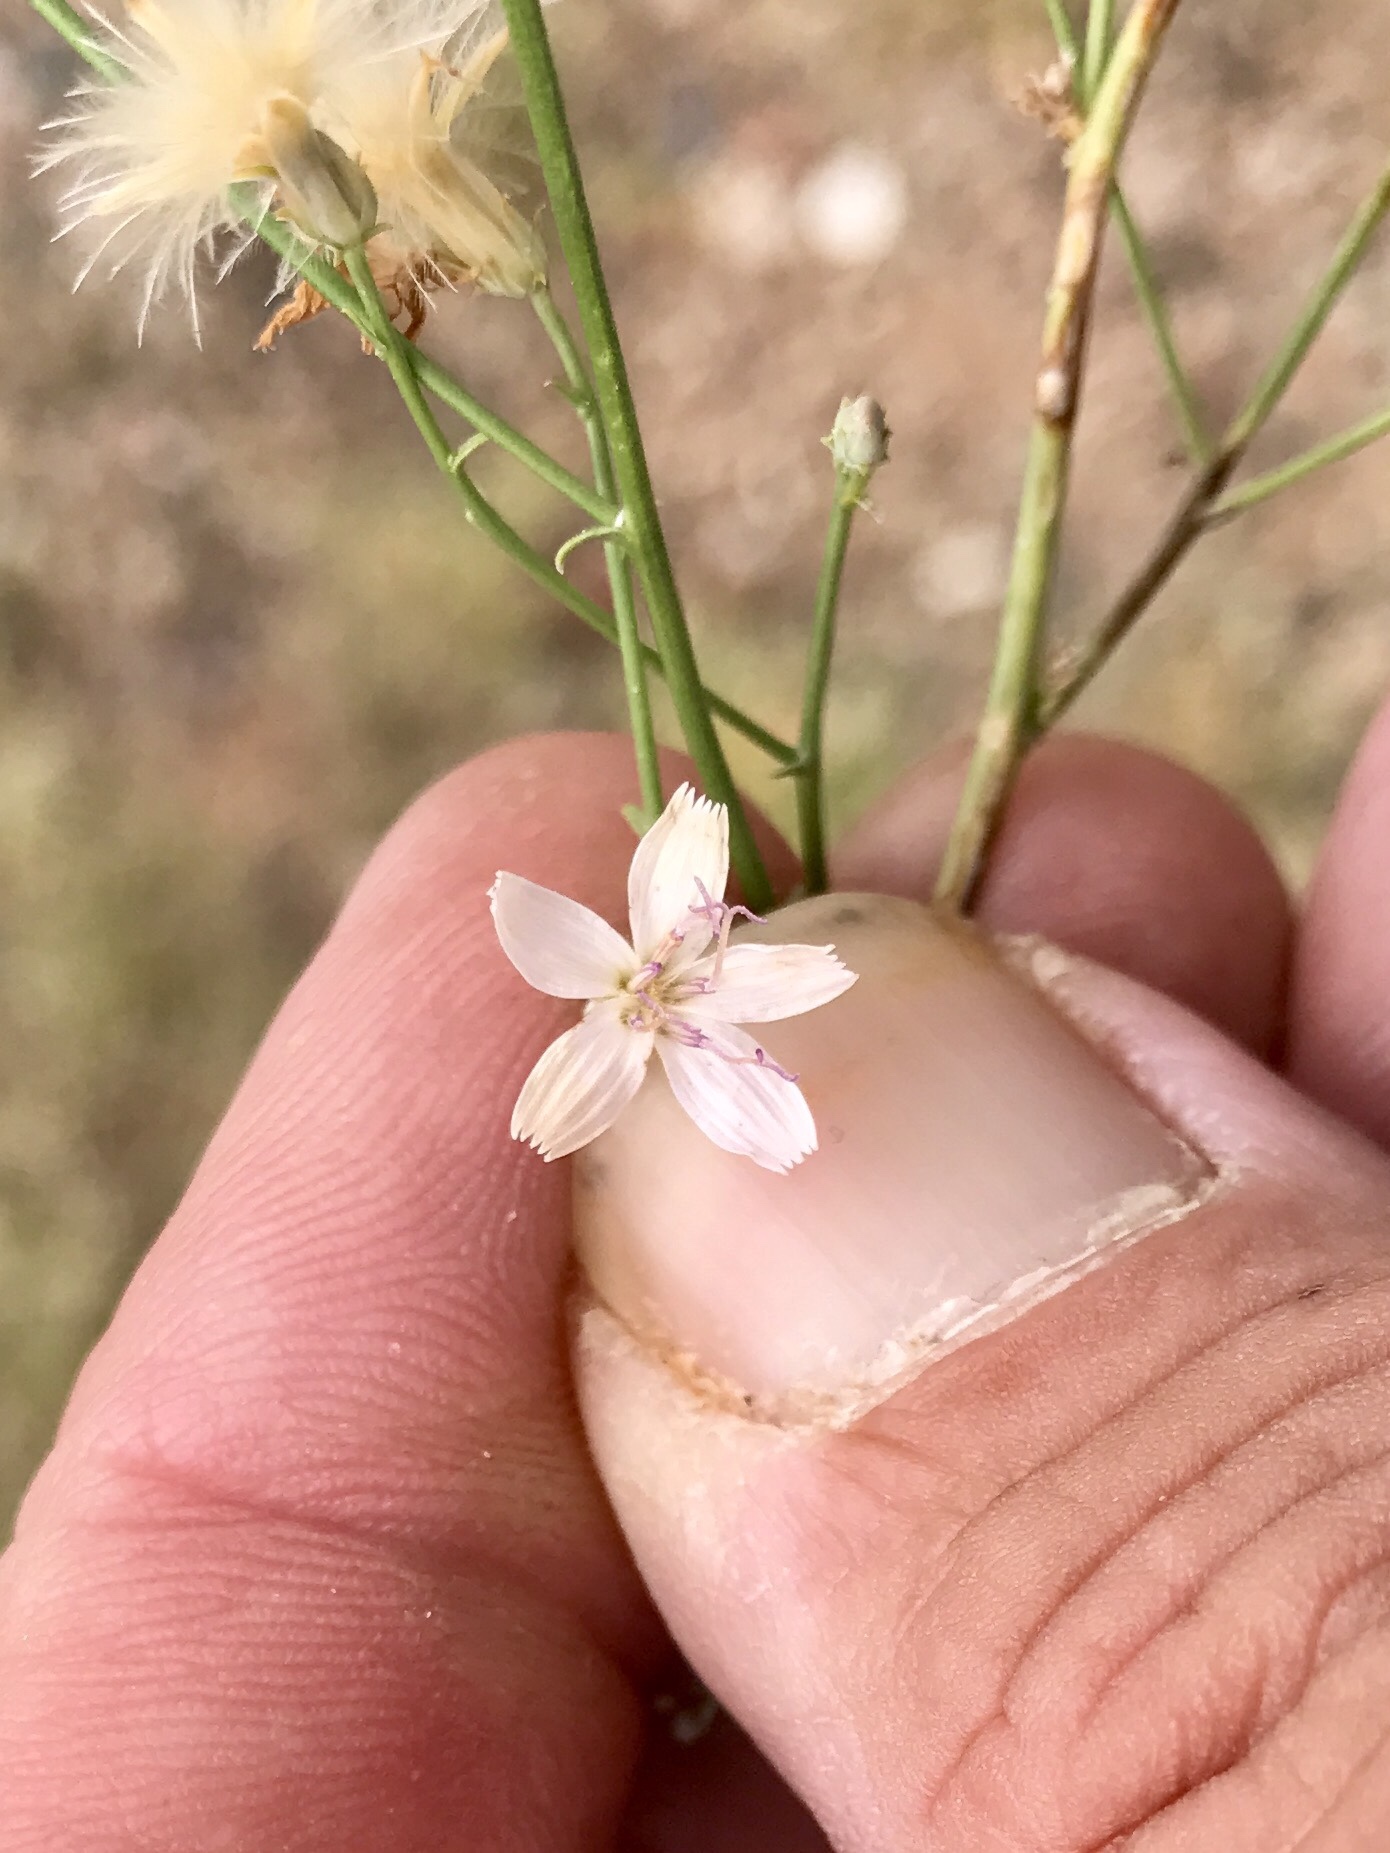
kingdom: Plantae
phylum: Tracheophyta
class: Magnoliopsida
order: Asterales
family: Asteraceae
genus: Stephanomeria
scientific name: Stephanomeria pauciflora
